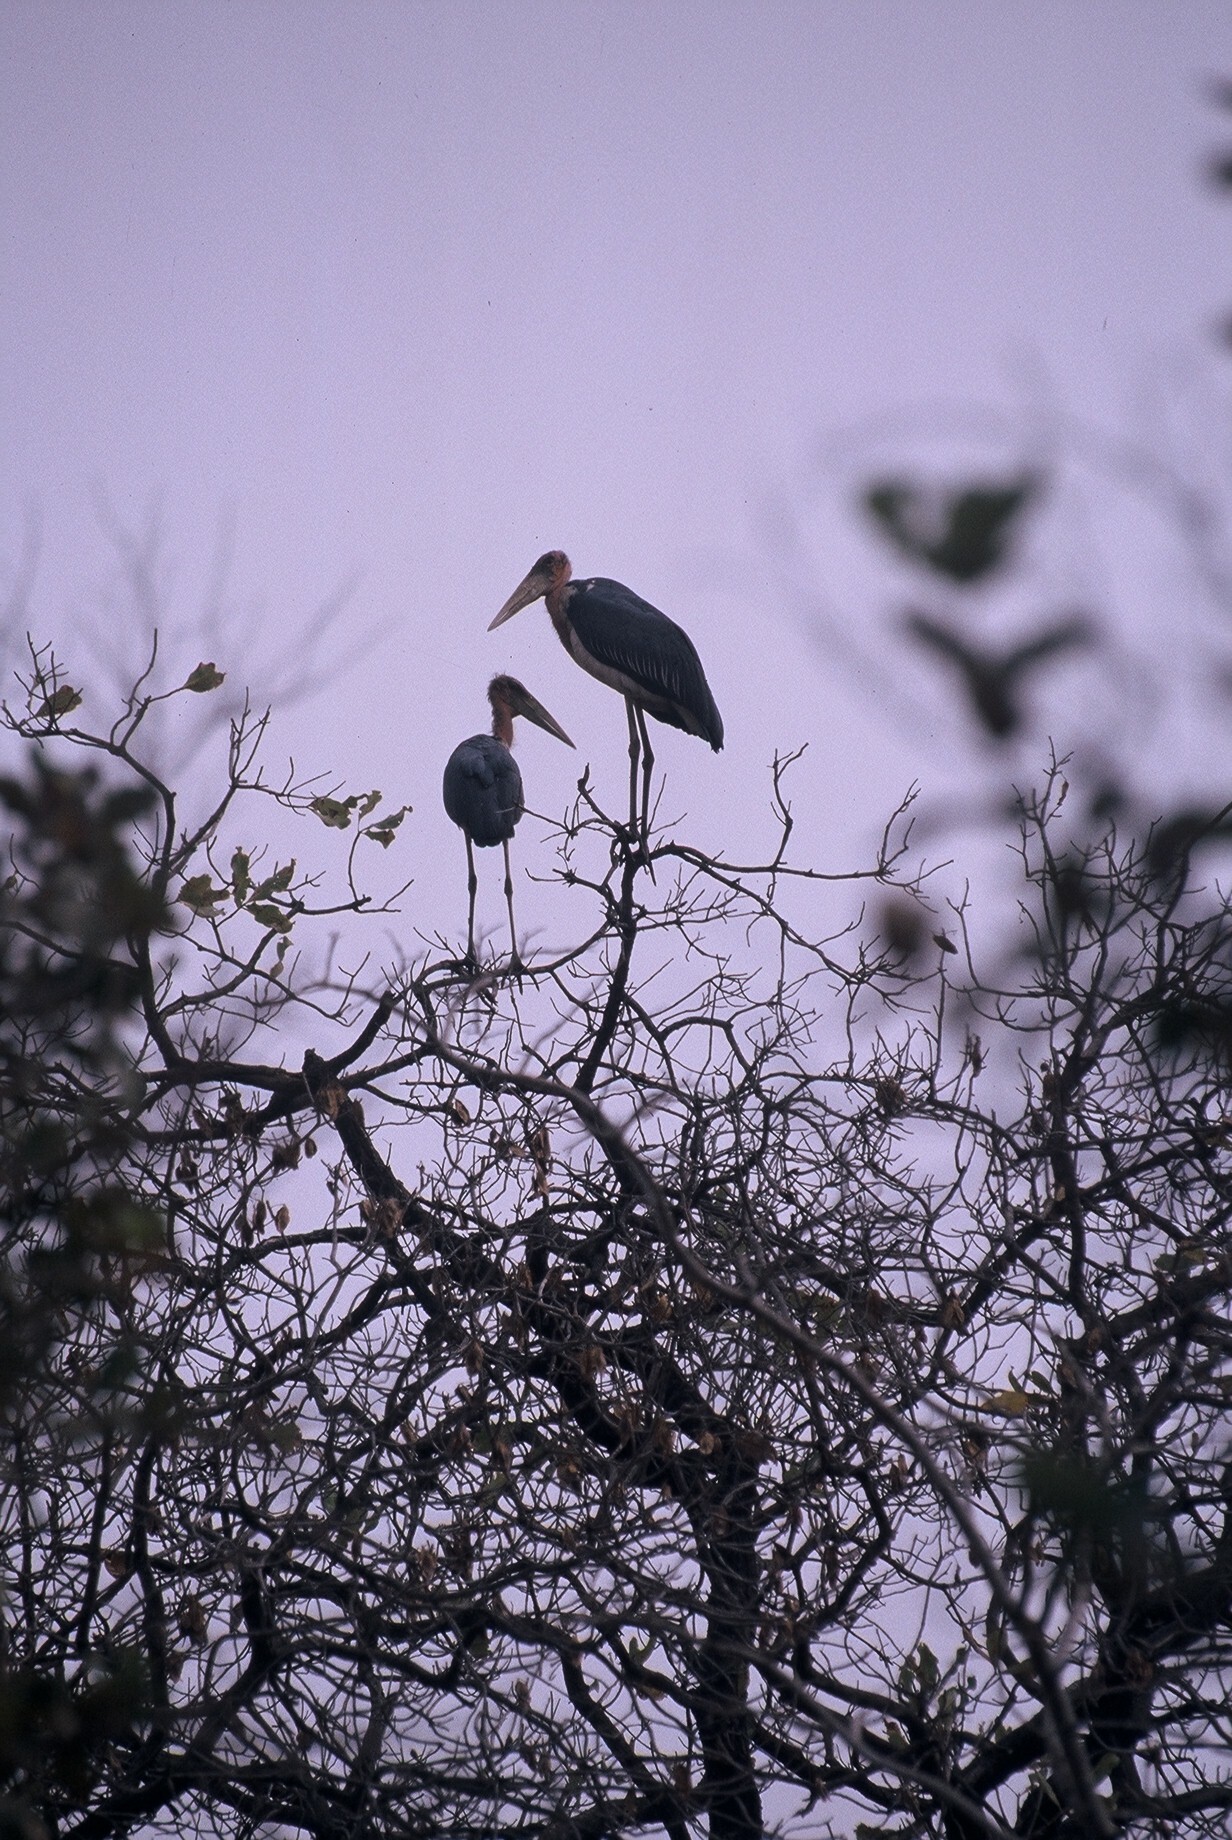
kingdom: Animalia
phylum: Chordata
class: Aves
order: Ciconiiformes
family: Ciconiidae
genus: Leptoptilos
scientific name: Leptoptilos crumenifer
